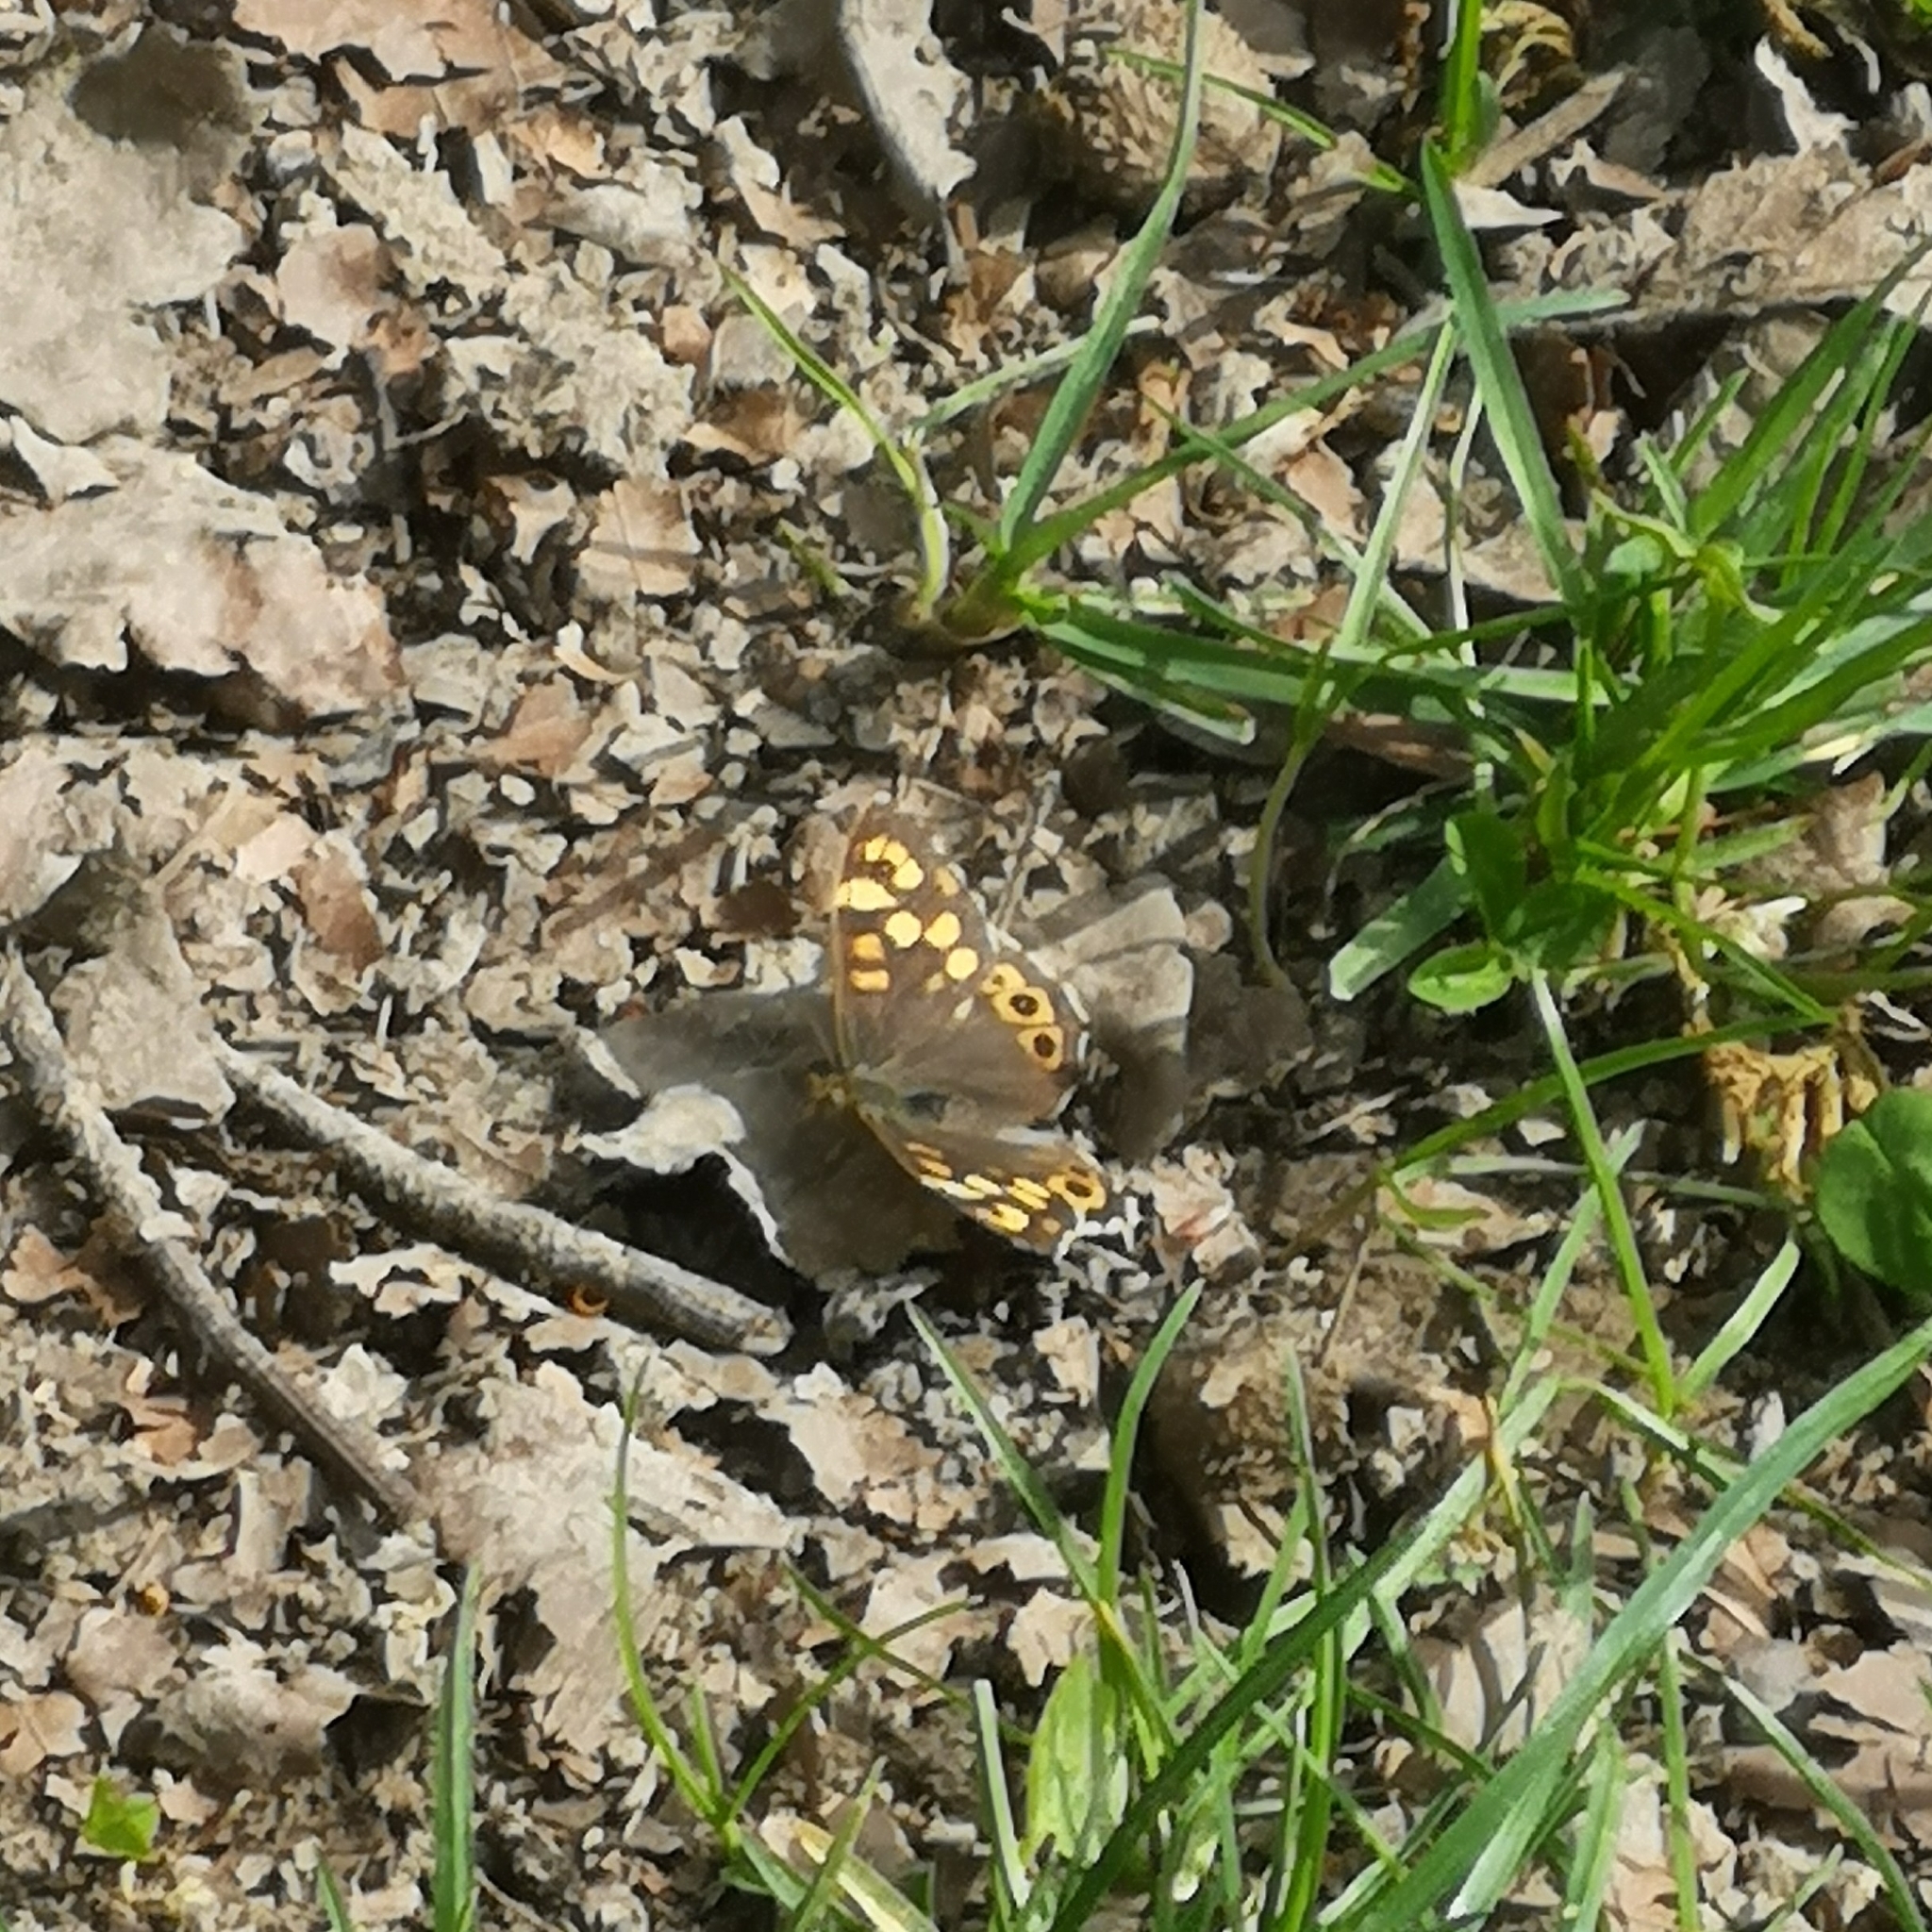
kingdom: Animalia
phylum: Arthropoda
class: Insecta
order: Lepidoptera
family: Nymphalidae
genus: Pararge
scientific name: Pararge aegeria
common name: Speckled wood
